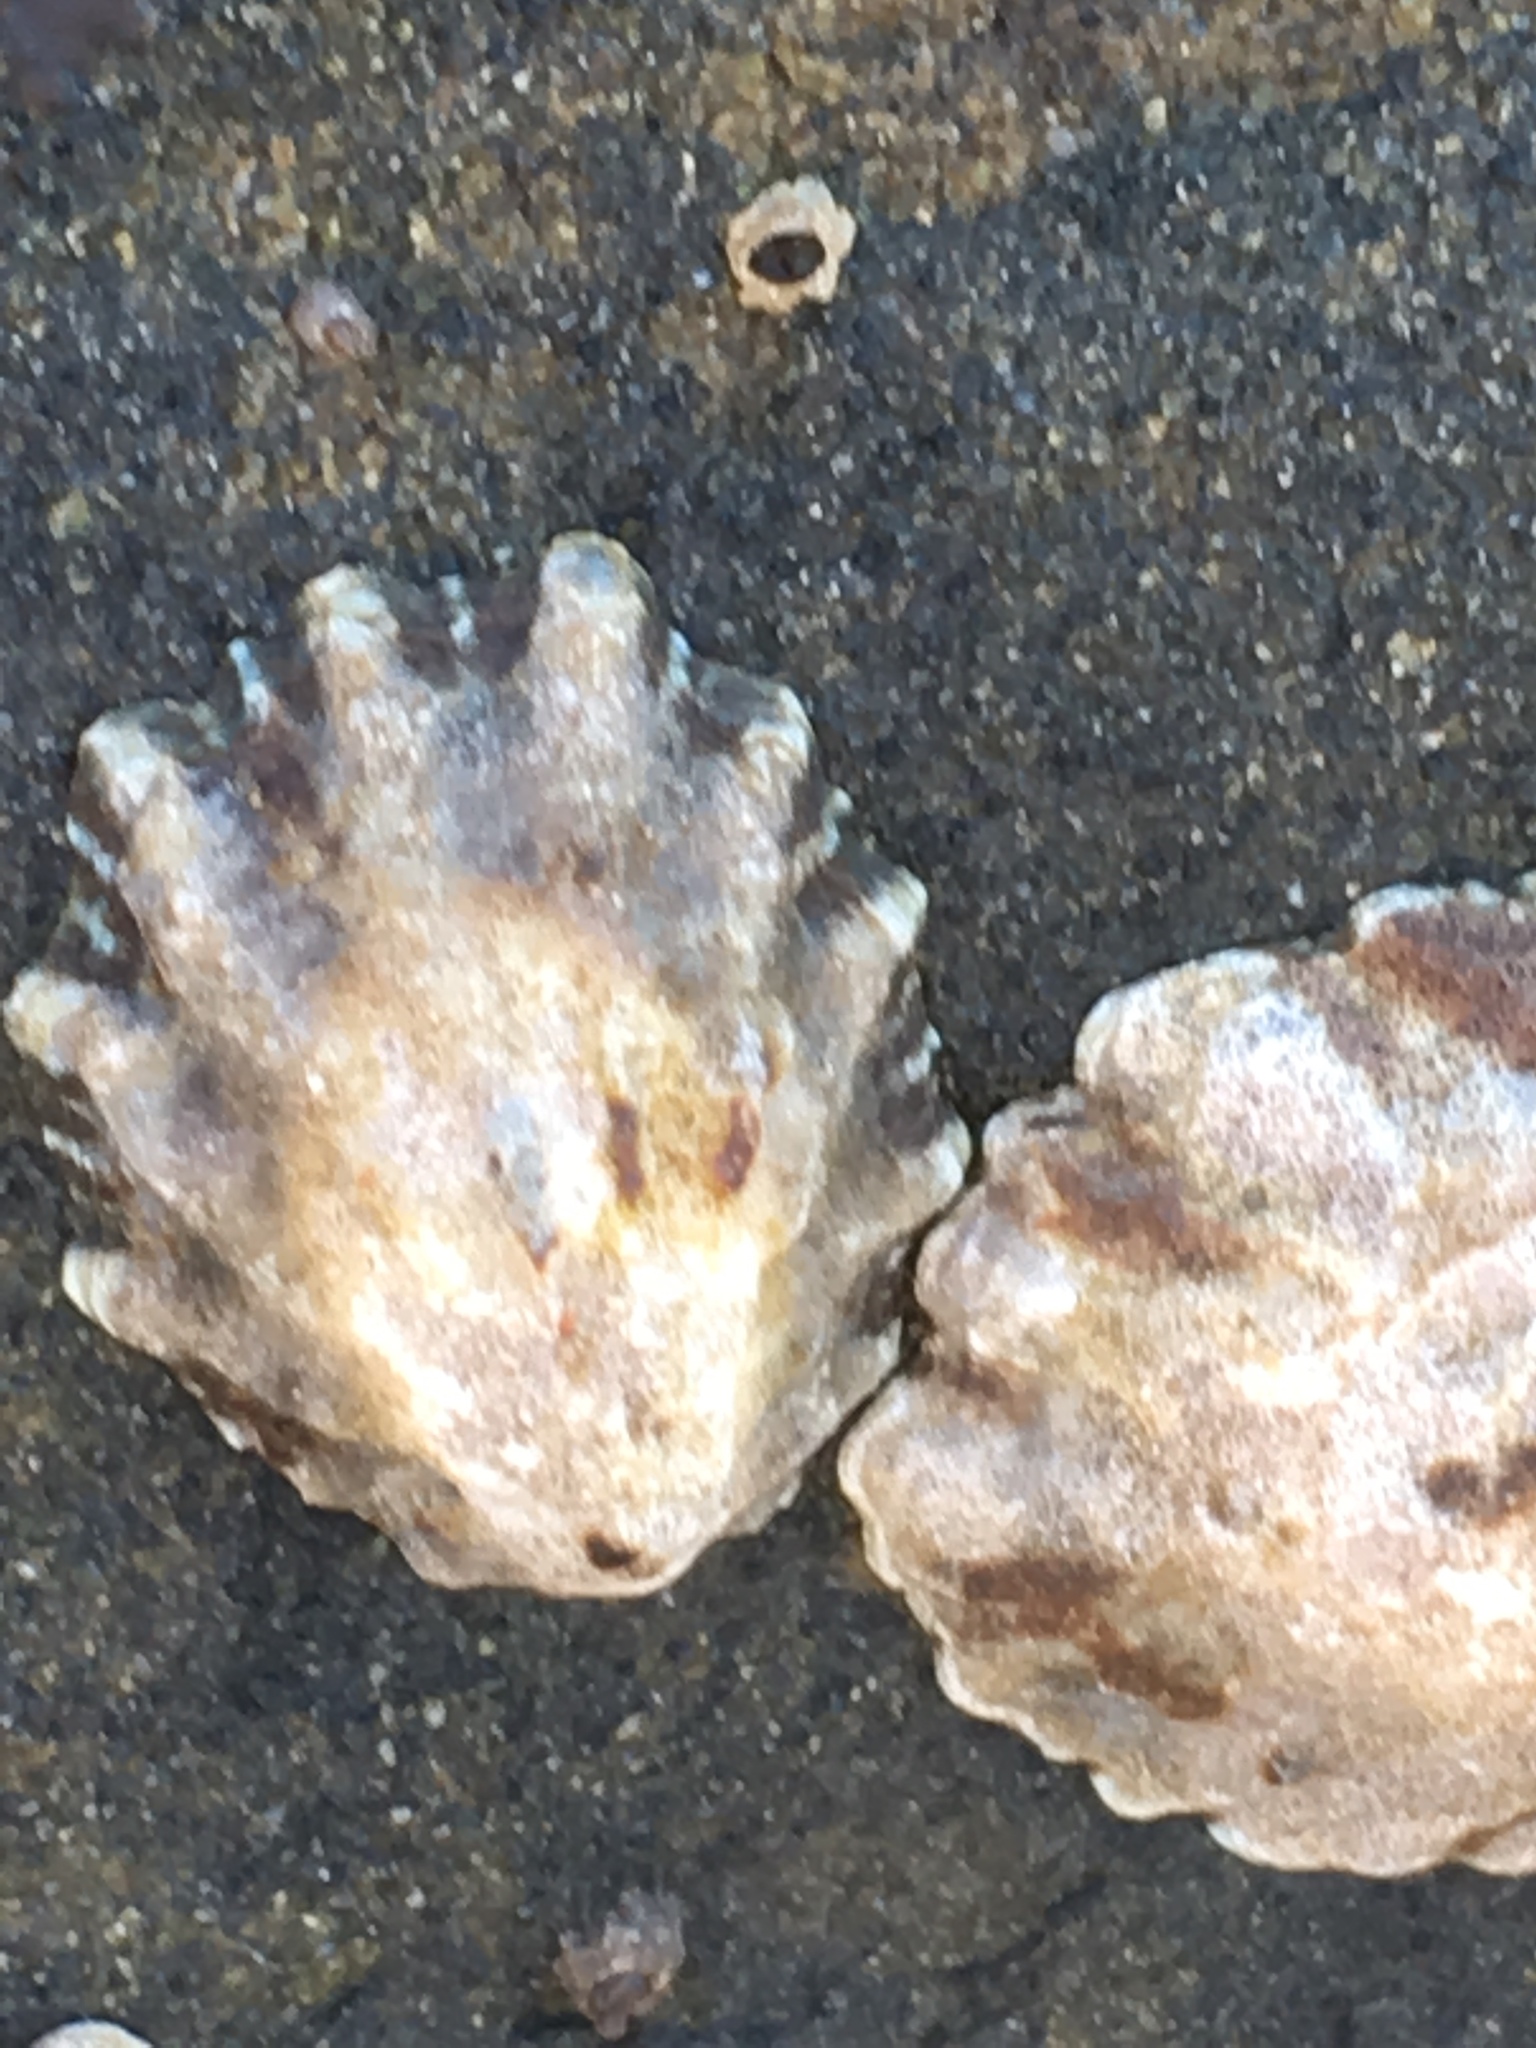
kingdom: Animalia
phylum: Mollusca
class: Gastropoda
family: Lottiidae
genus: Lottia
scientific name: Lottia scabra
